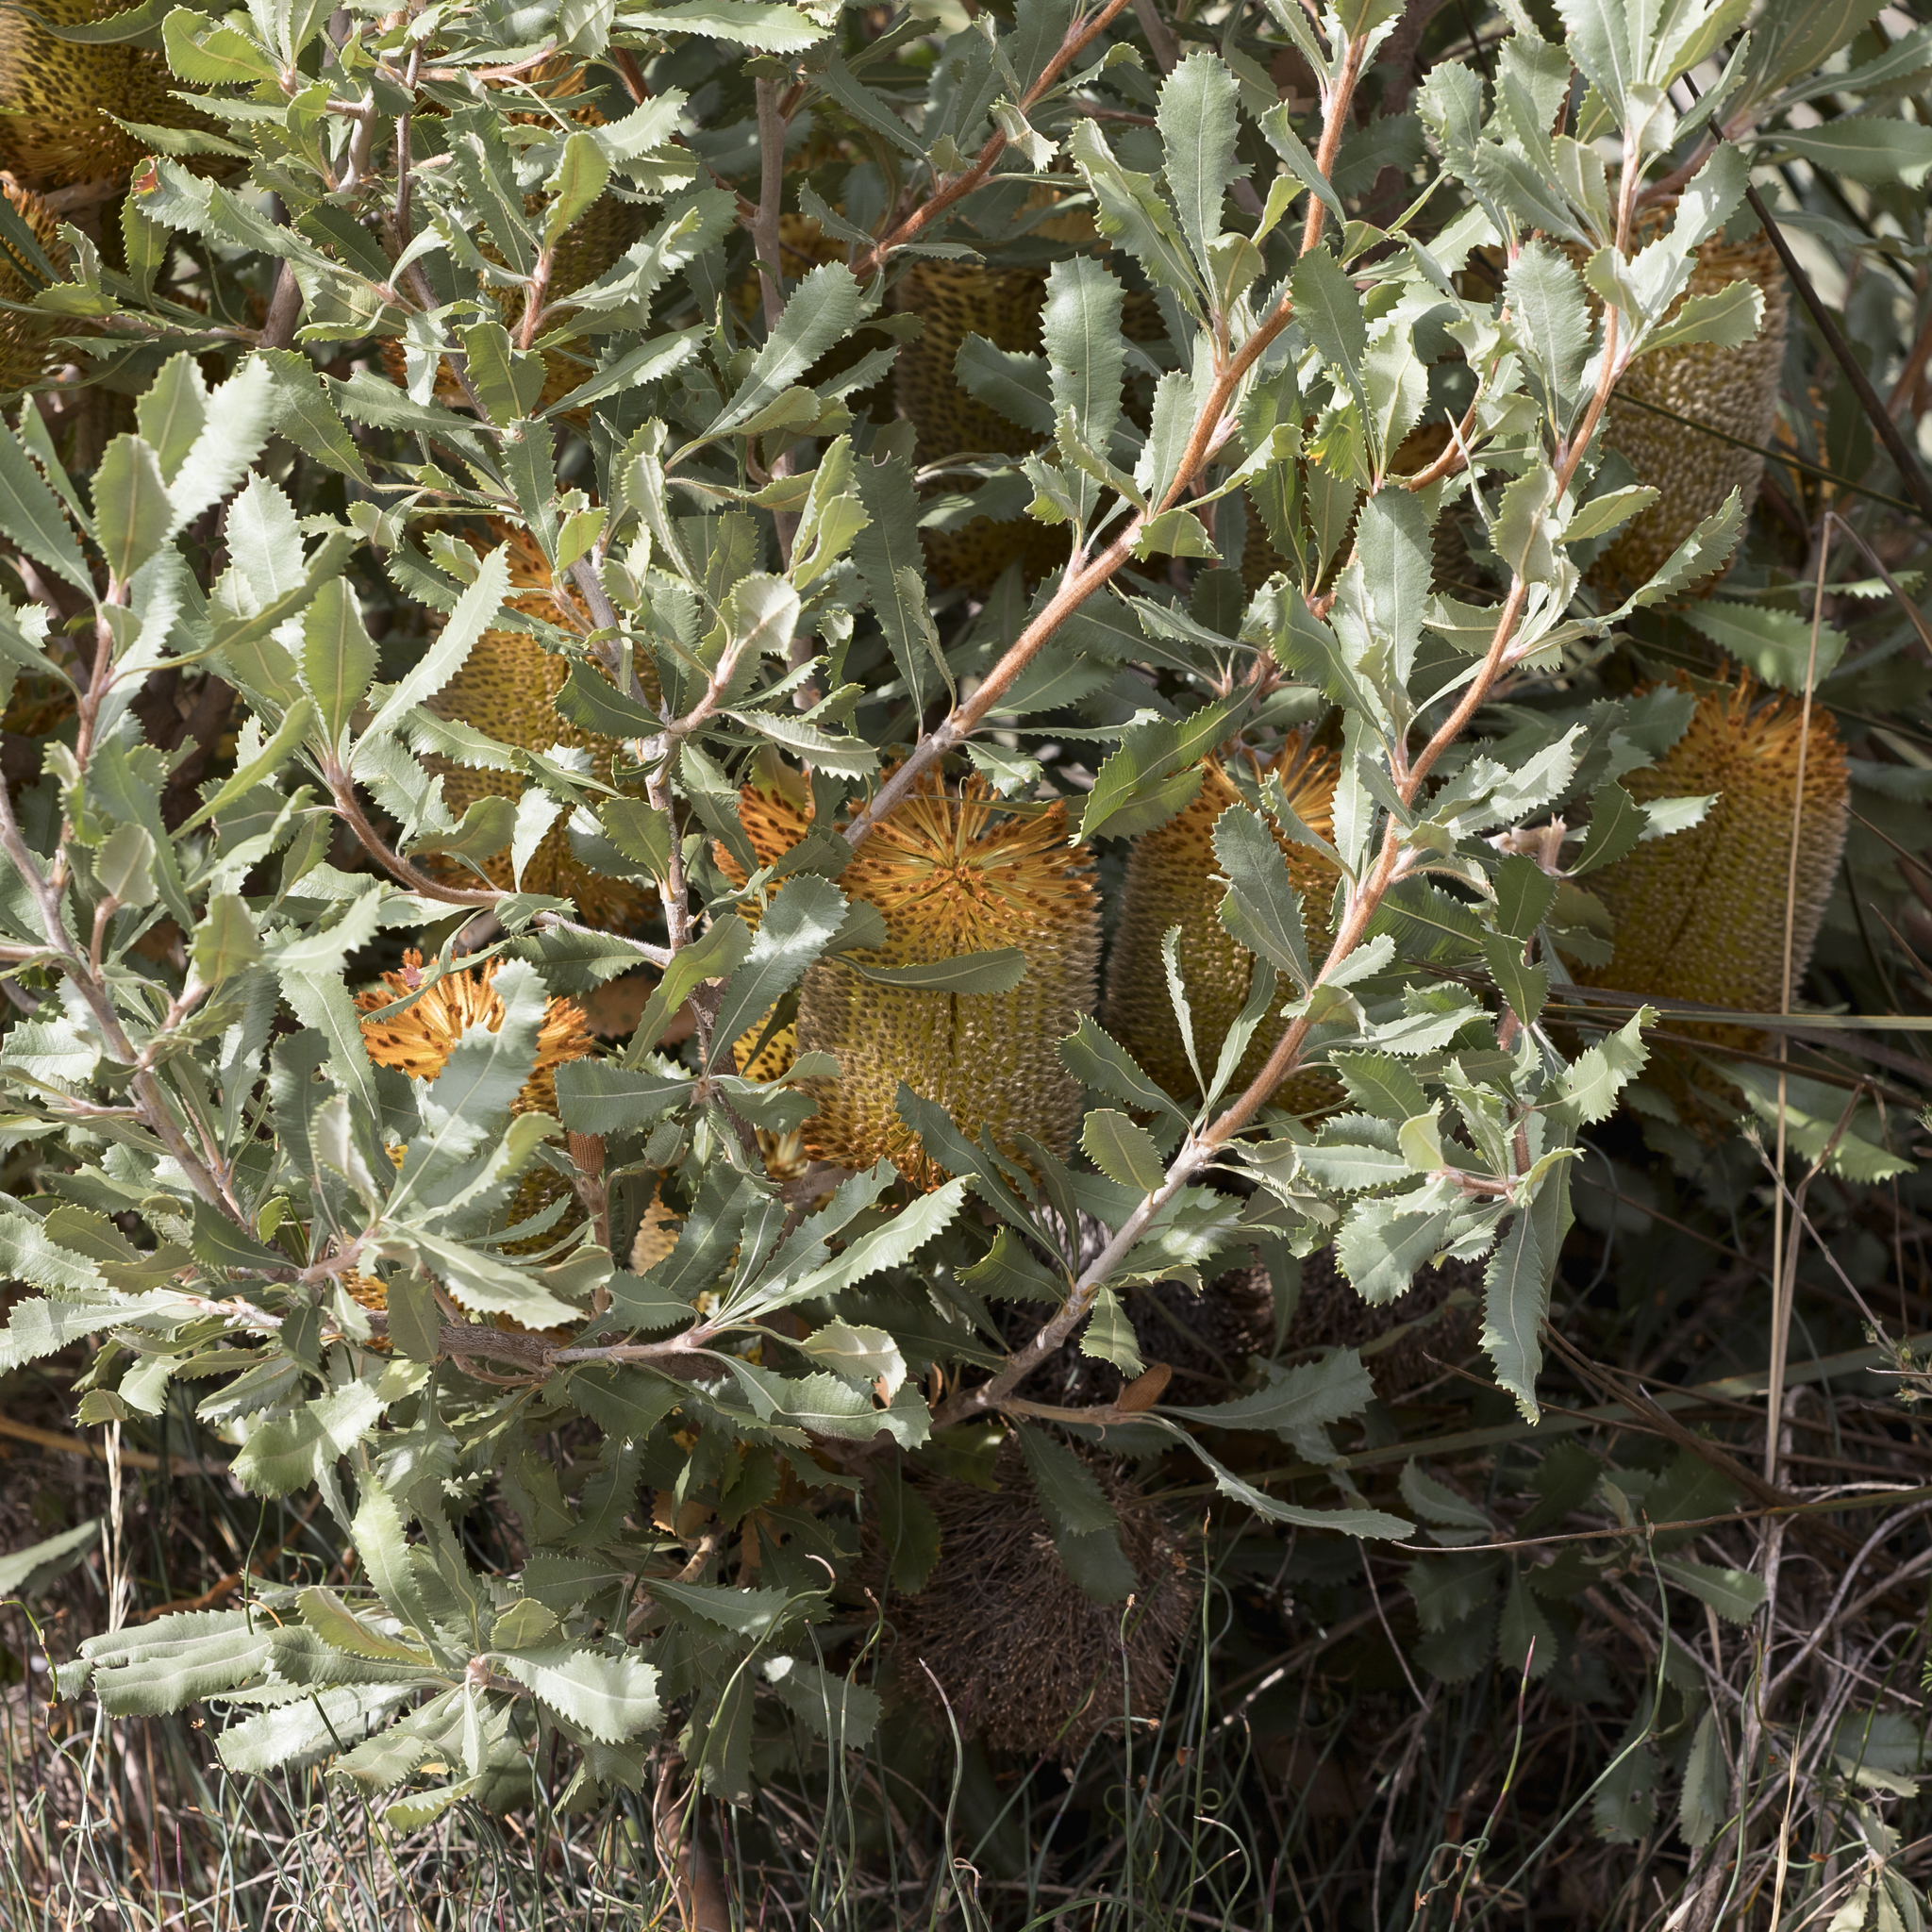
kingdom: Plantae
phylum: Tracheophyta
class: Magnoliopsida
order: Proteales
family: Proteaceae
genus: Banksia
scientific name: Banksia ornata
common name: Desert banksia
